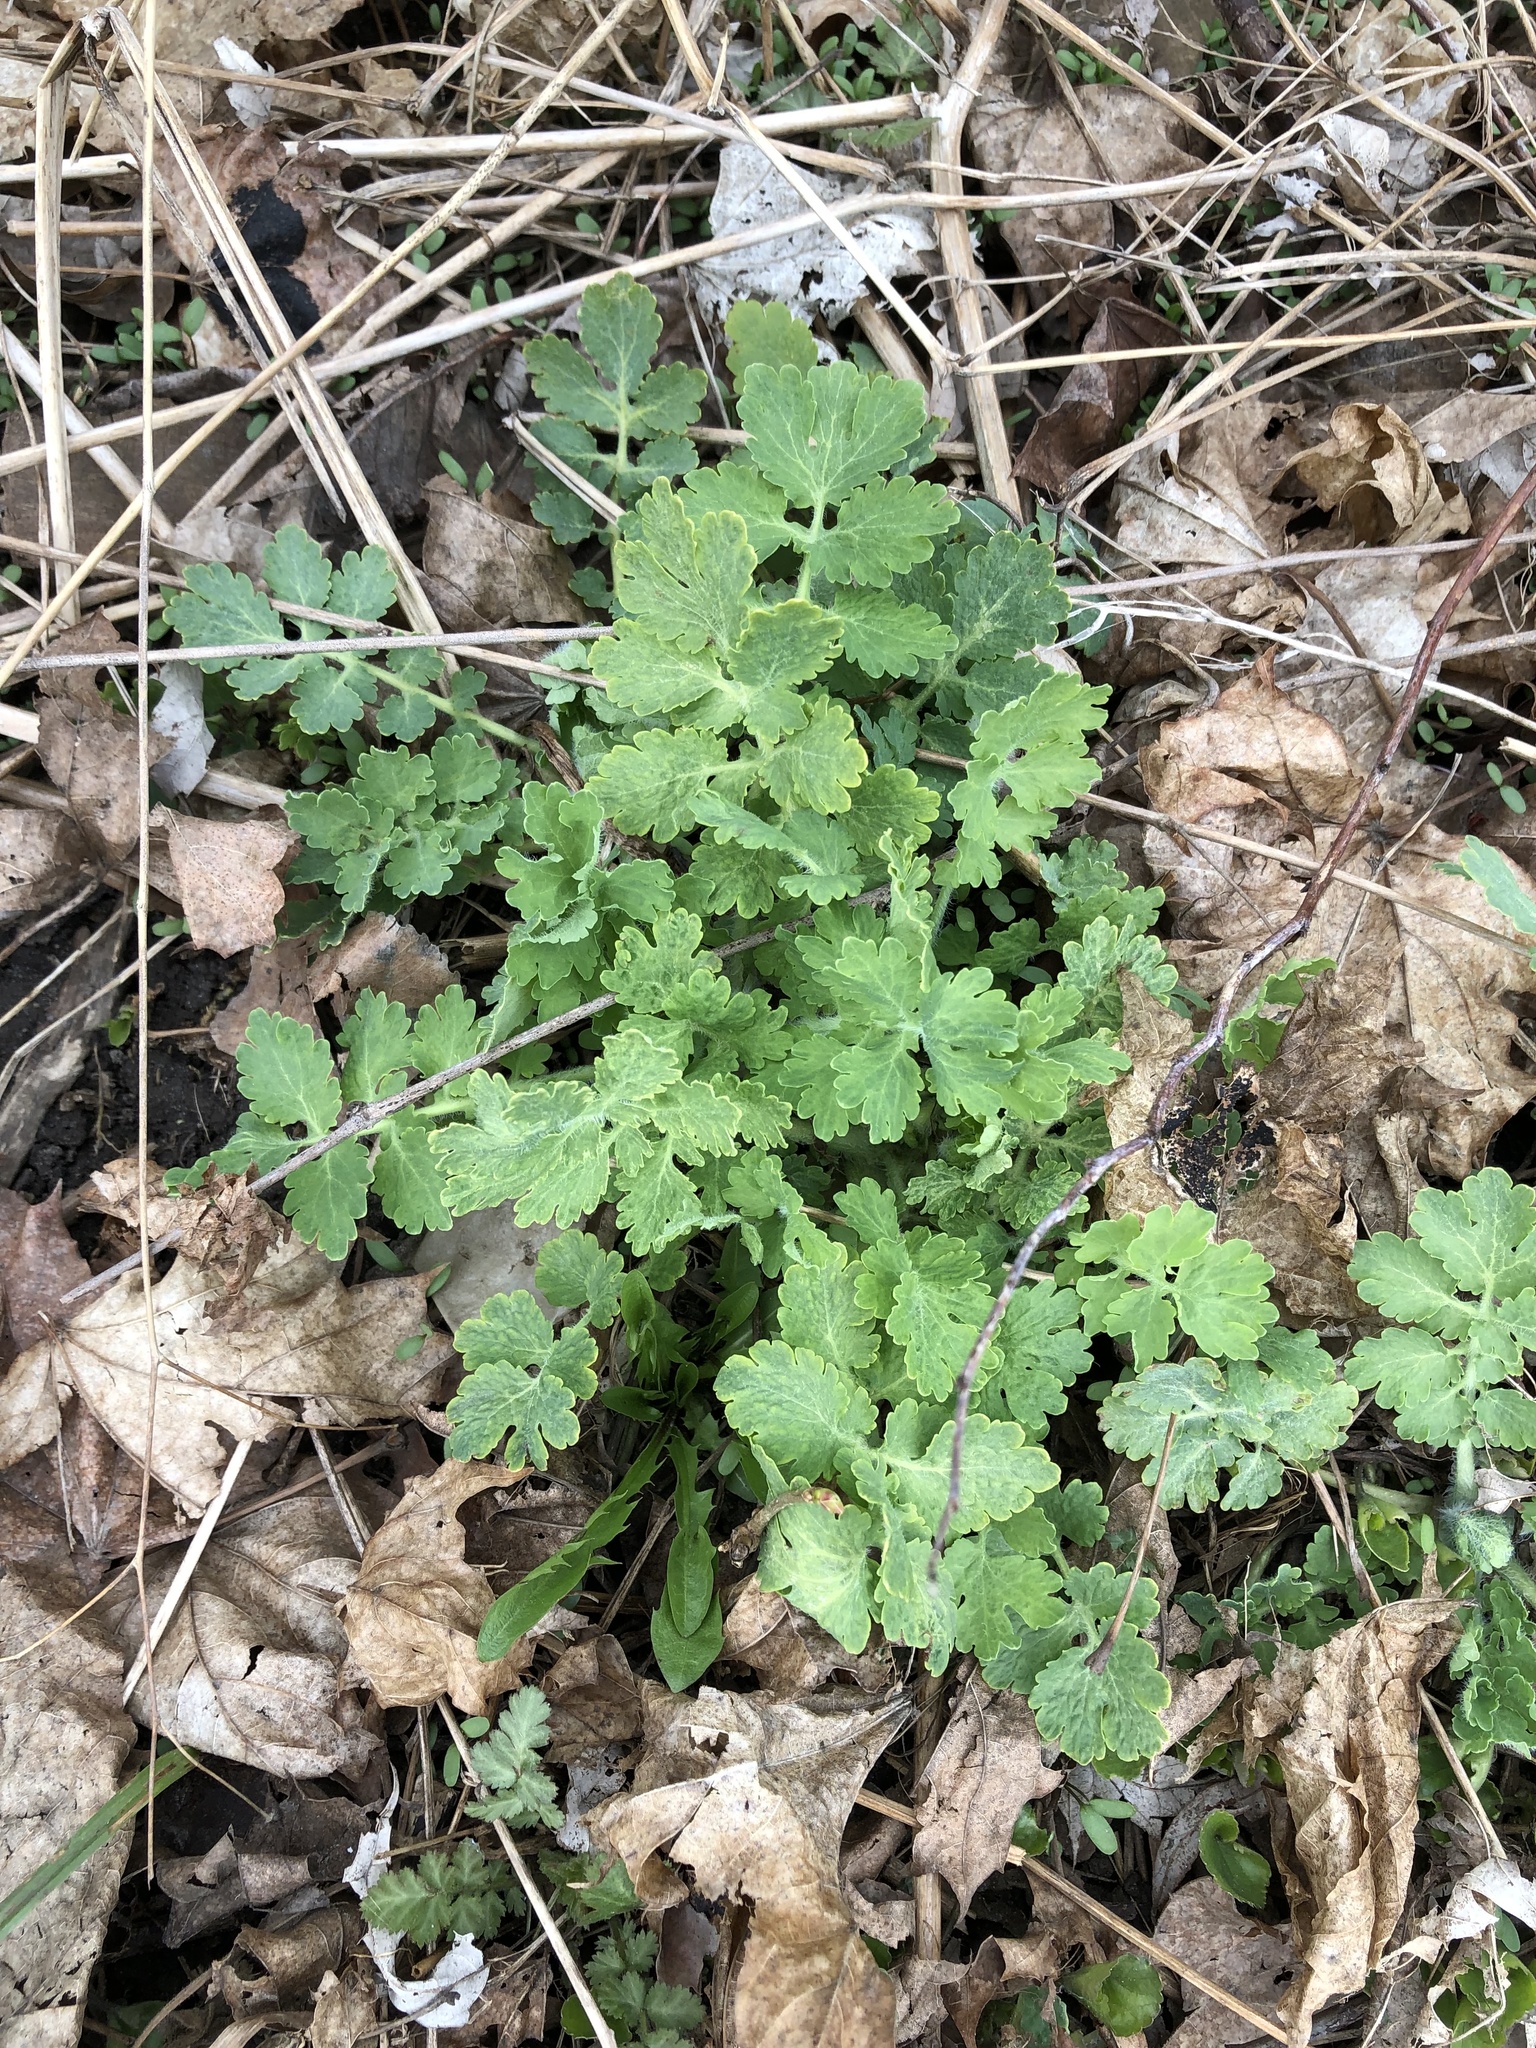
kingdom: Plantae
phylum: Tracheophyta
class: Magnoliopsida
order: Ranunculales
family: Papaveraceae
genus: Chelidonium
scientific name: Chelidonium majus
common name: Greater celandine
